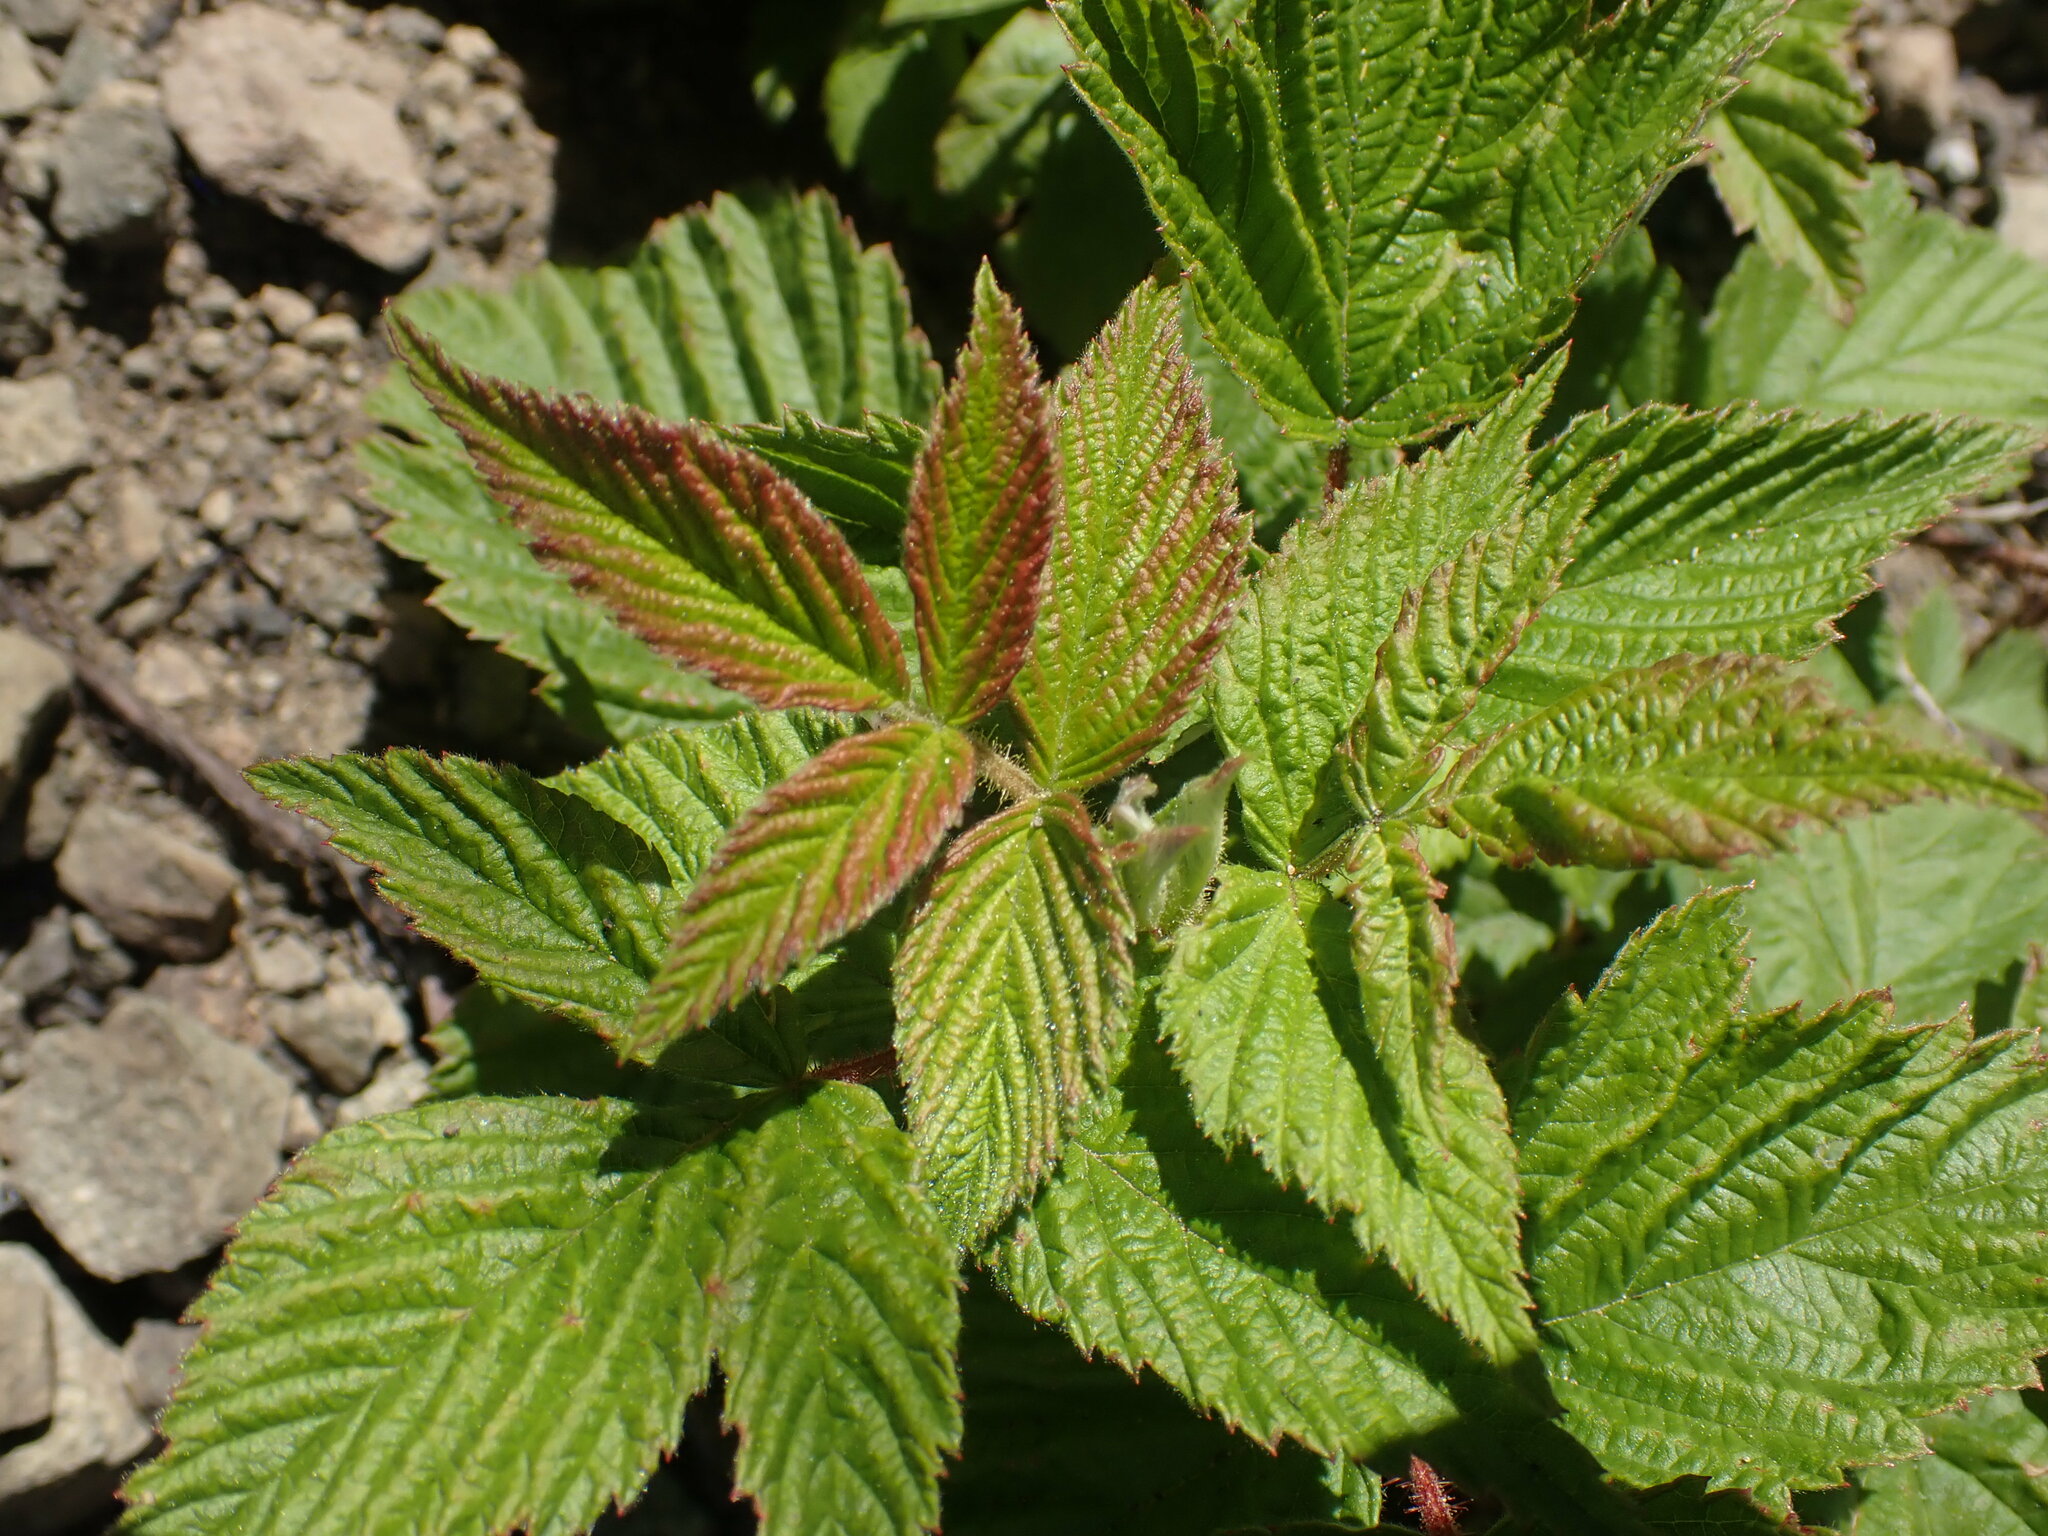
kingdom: Plantae
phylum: Tracheophyta
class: Magnoliopsida
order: Rosales
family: Rosaceae
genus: Rubus
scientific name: Rubus idaeus
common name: Raspberry
